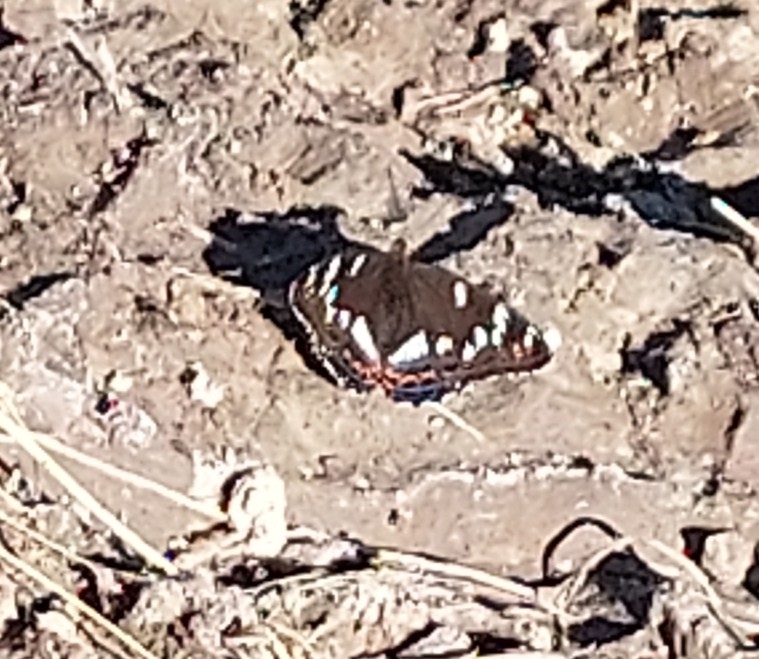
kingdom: Animalia
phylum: Arthropoda
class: Insecta
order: Lepidoptera
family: Nymphalidae
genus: Limenitis
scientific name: Limenitis populi
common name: Poplar admiral
